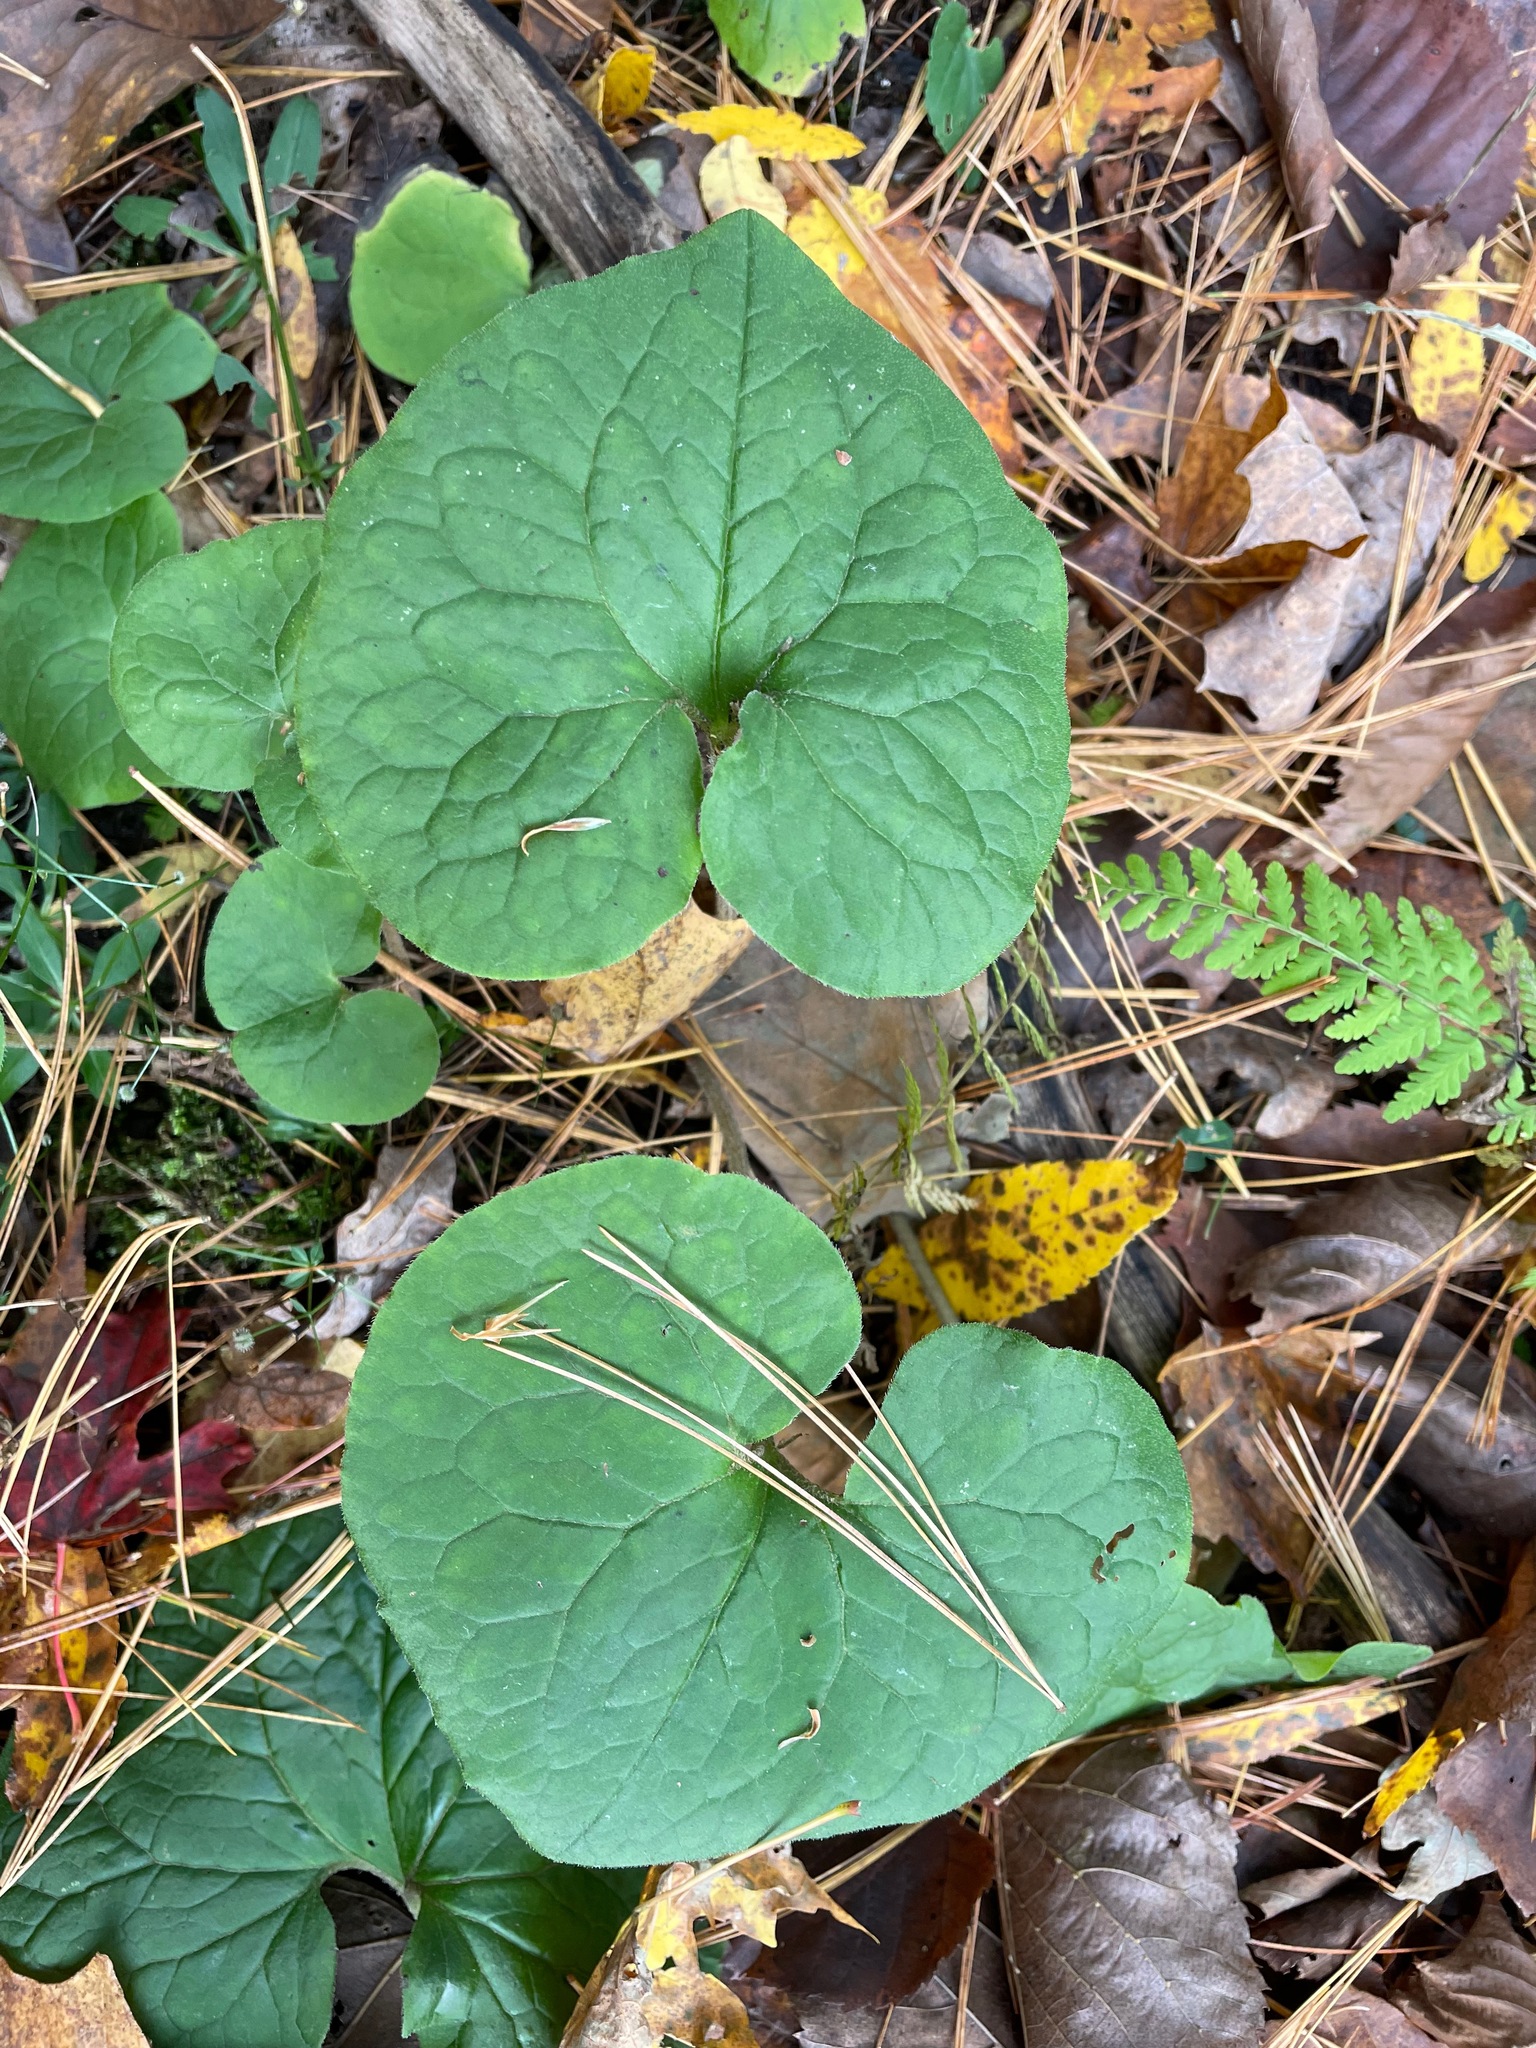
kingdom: Plantae
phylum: Tracheophyta
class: Magnoliopsida
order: Piperales
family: Aristolochiaceae
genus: Asarum
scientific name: Asarum canadense
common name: Wild ginger
